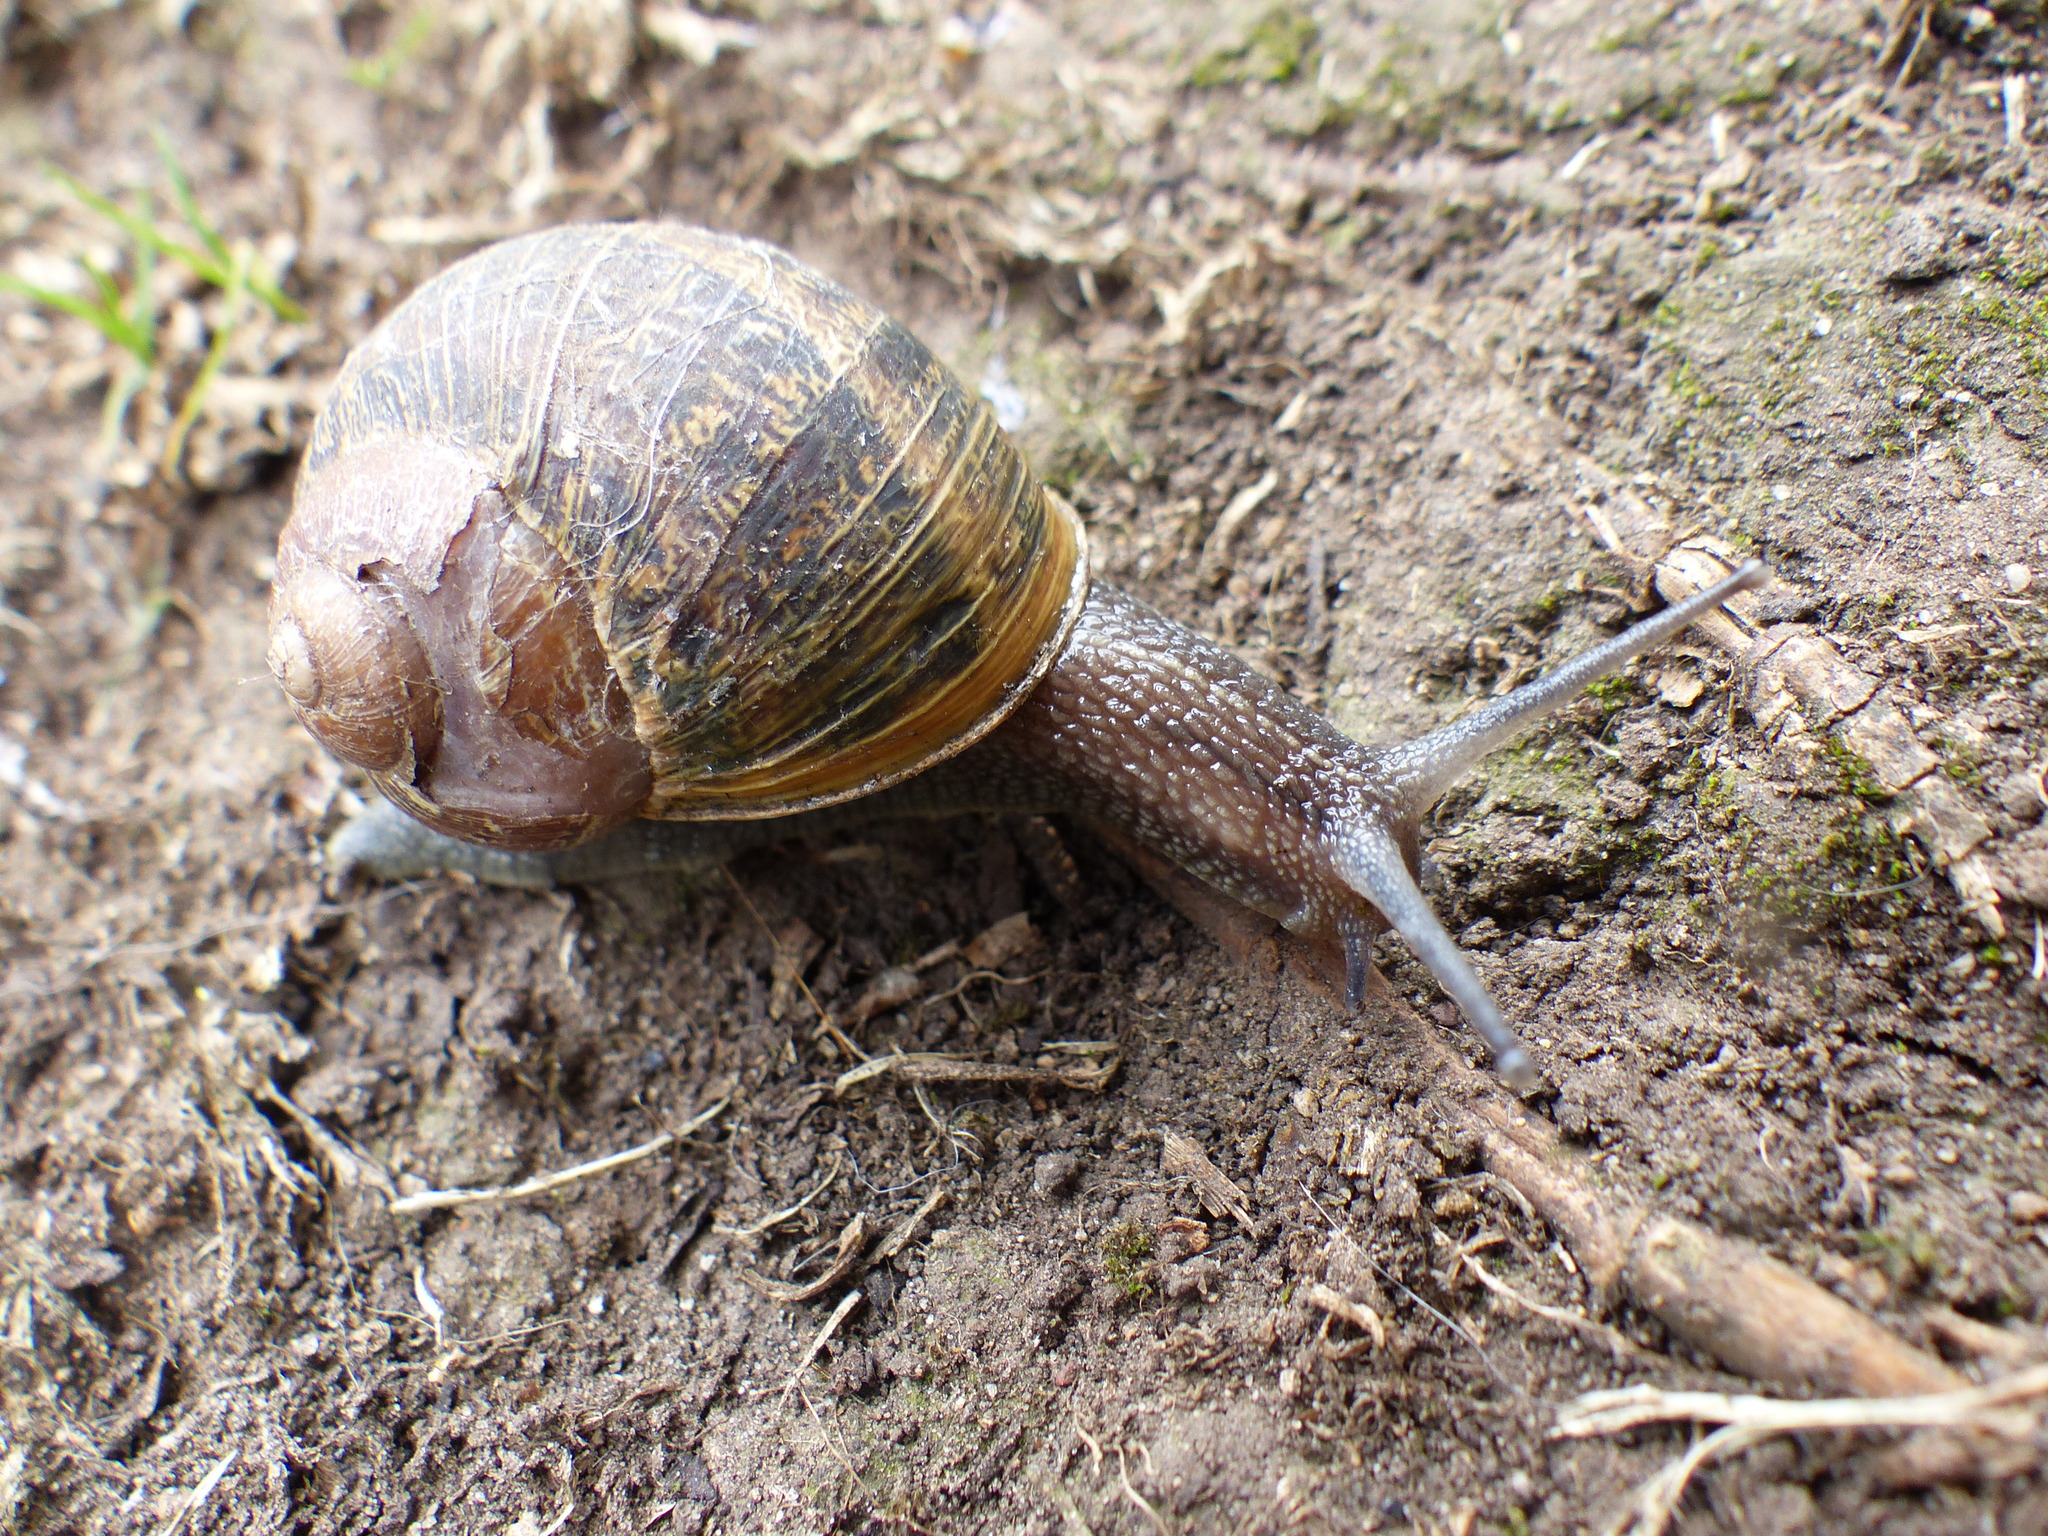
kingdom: Animalia
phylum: Mollusca
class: Gastropoda
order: Stylommatophora
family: Helicidae
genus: Cornu
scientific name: Cornu aspersum
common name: Brown garden snail
